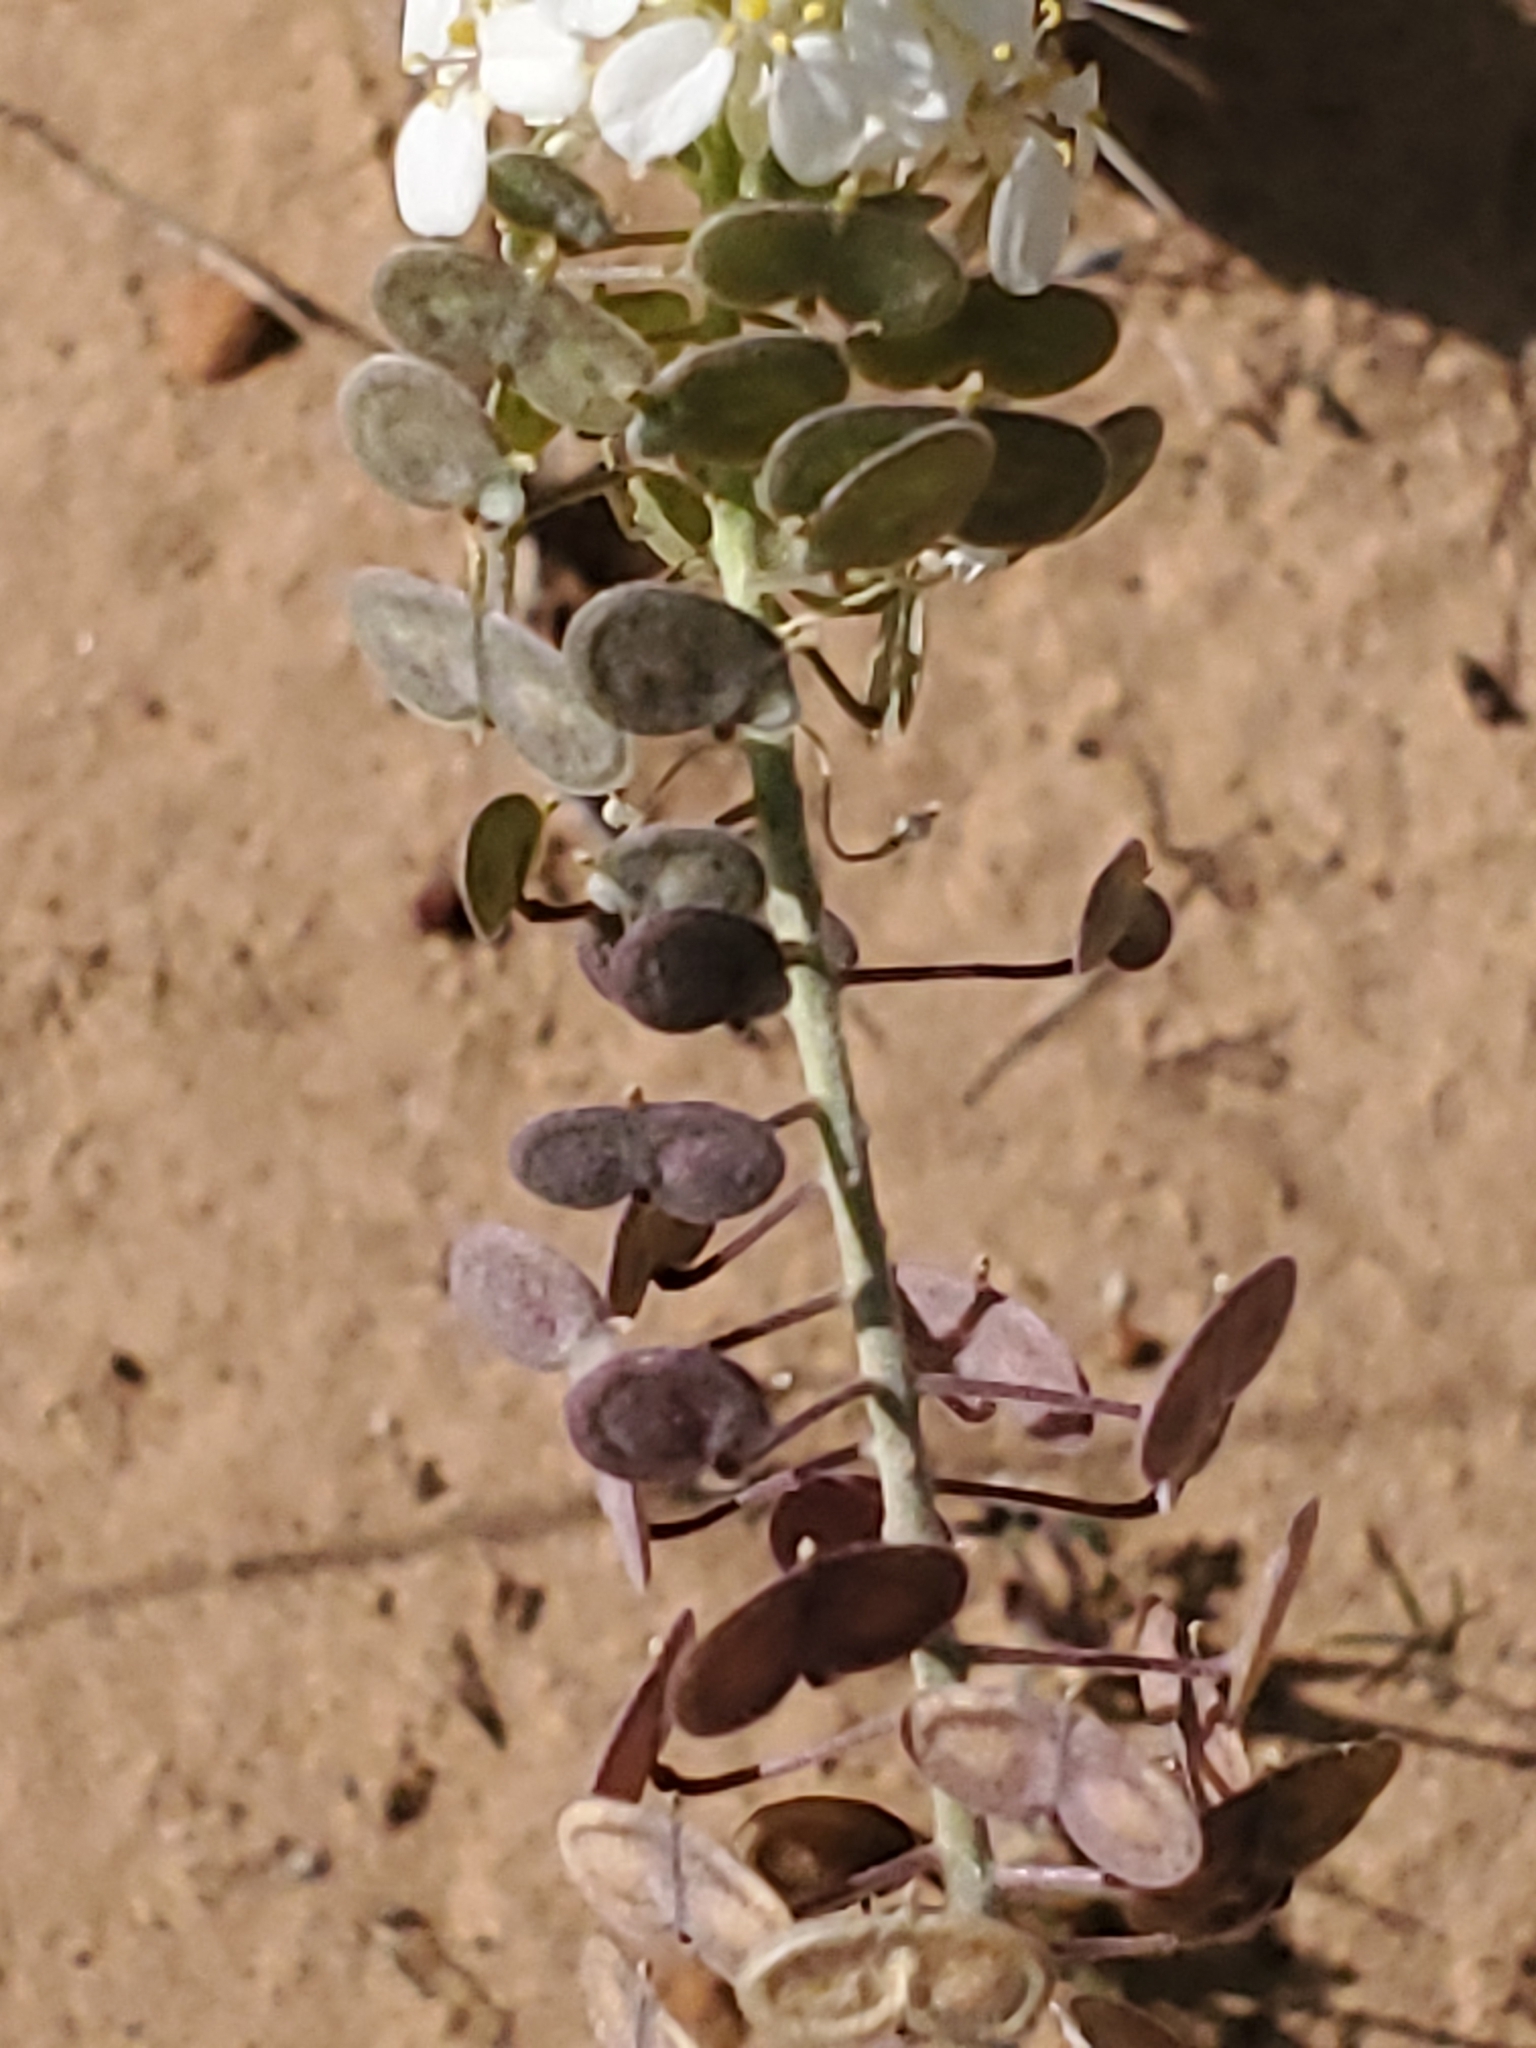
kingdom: Plantae
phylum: Tracheophyta
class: Magnoliopsida
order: Brassicales
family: Brassicaceae
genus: Dimorphocarpa
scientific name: Dimorphocarpa wislizenii
